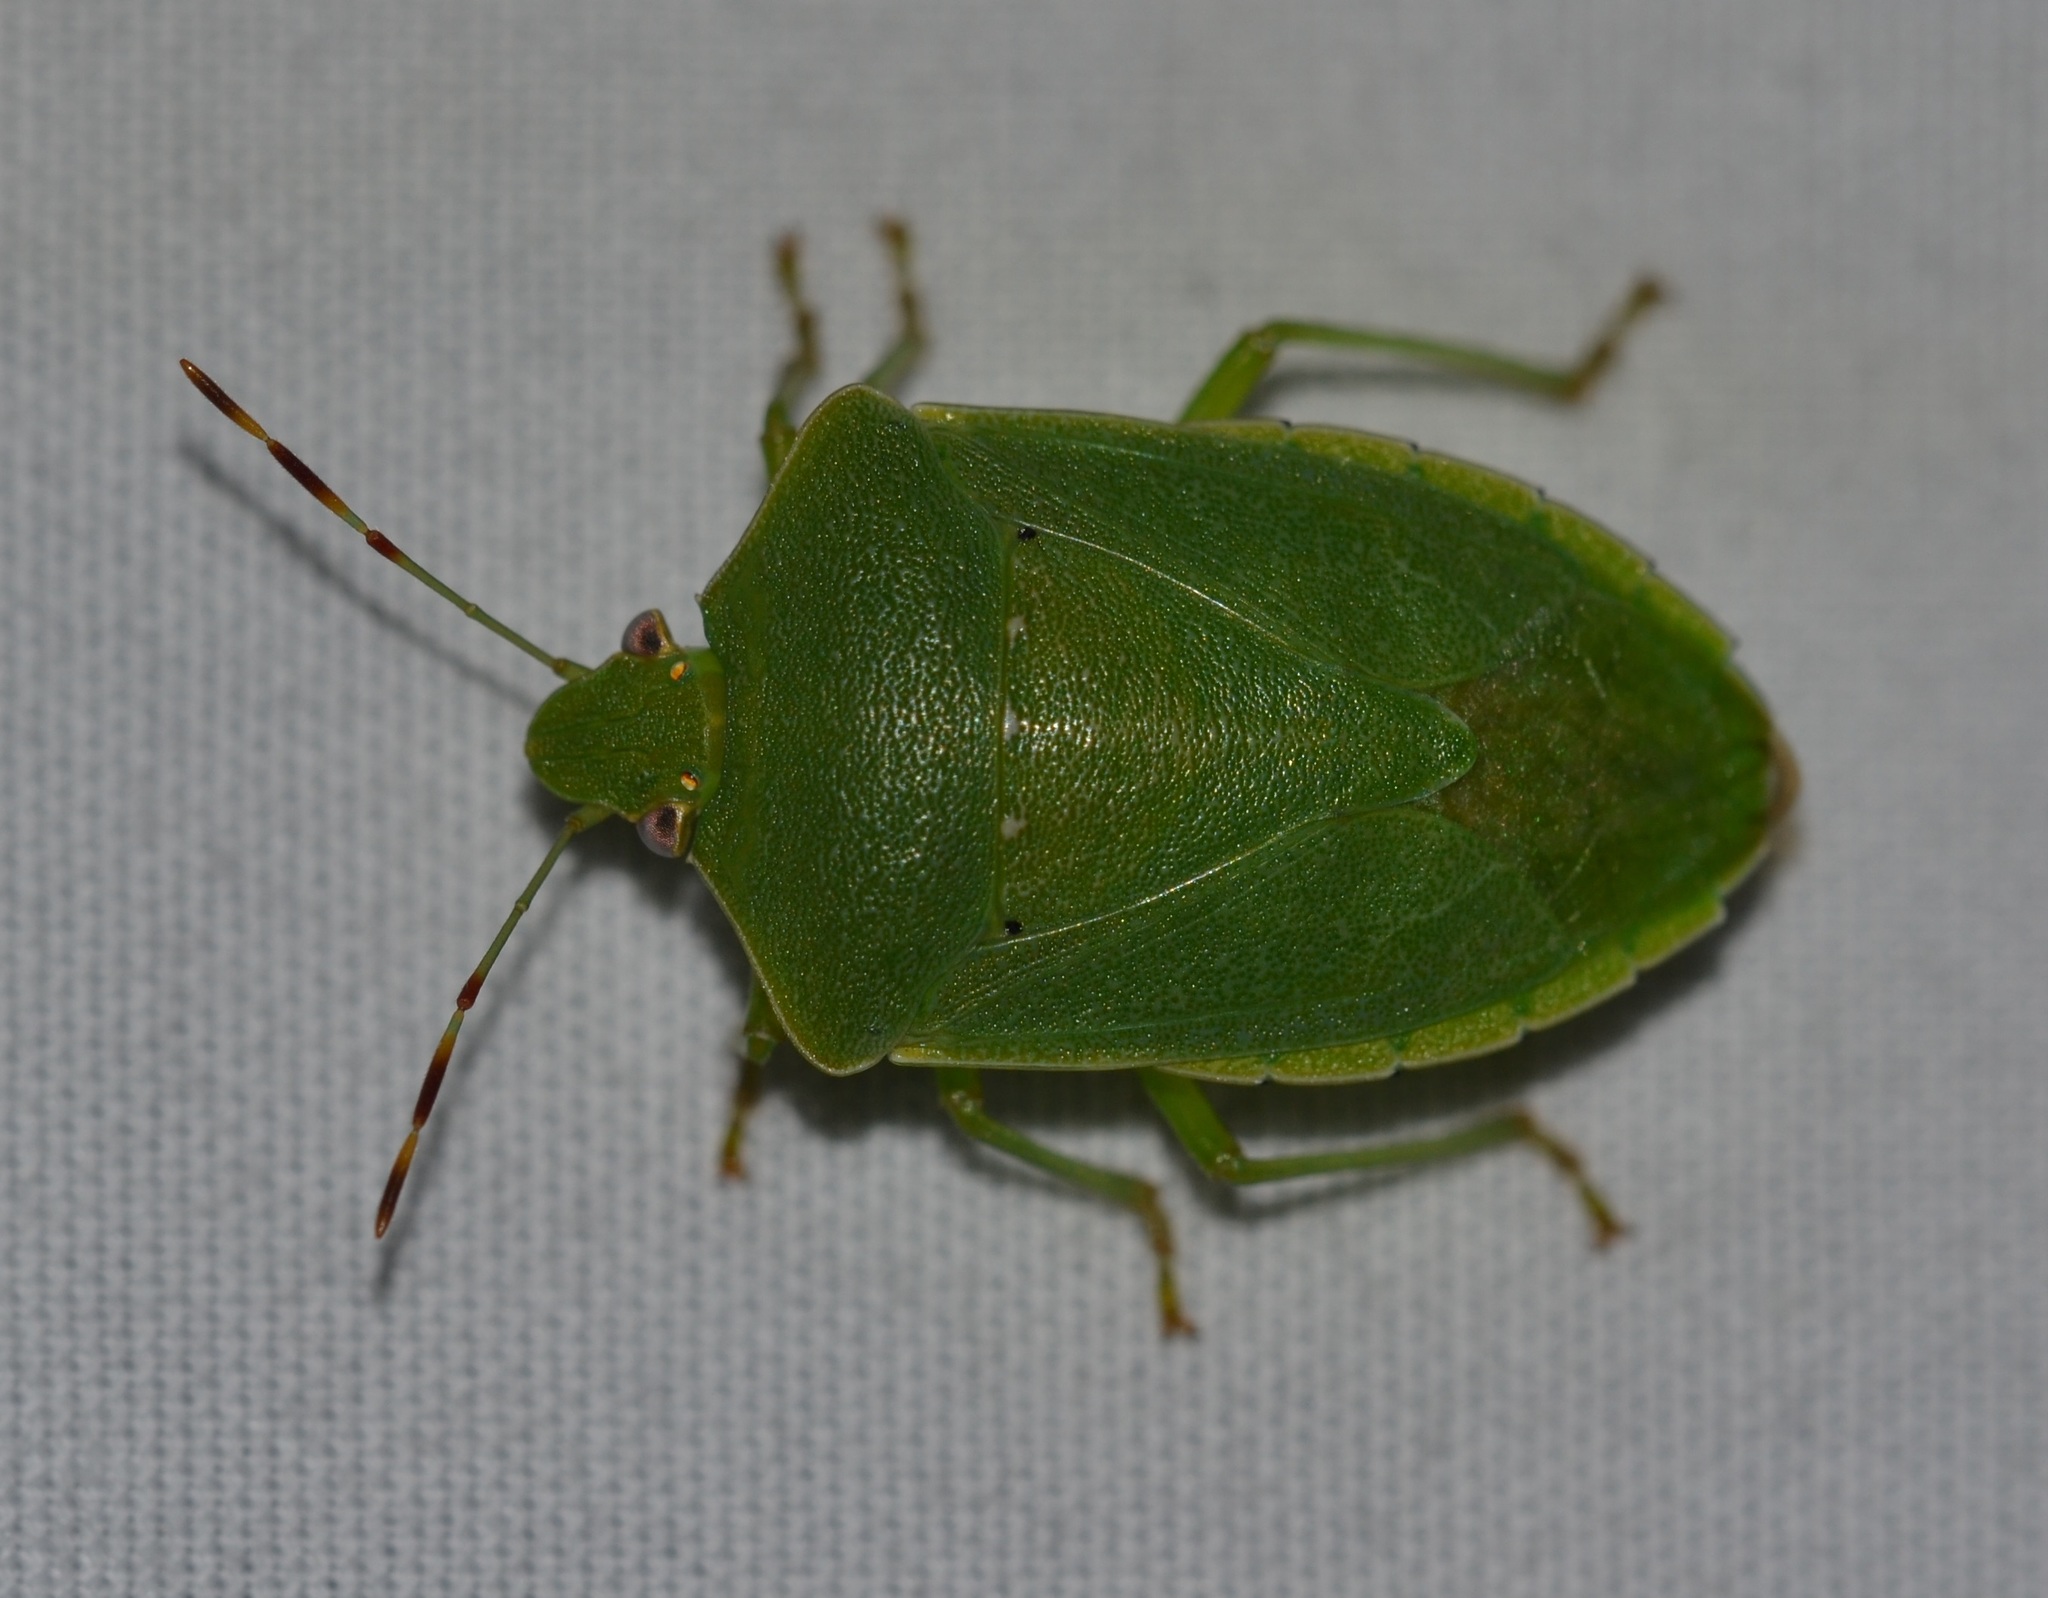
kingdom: Animalia
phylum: Arthropoda
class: Insecta
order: Hemiptera
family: Pentatomidae
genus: Nezara
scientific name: Nezara viridula
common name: Southern green stink bug
